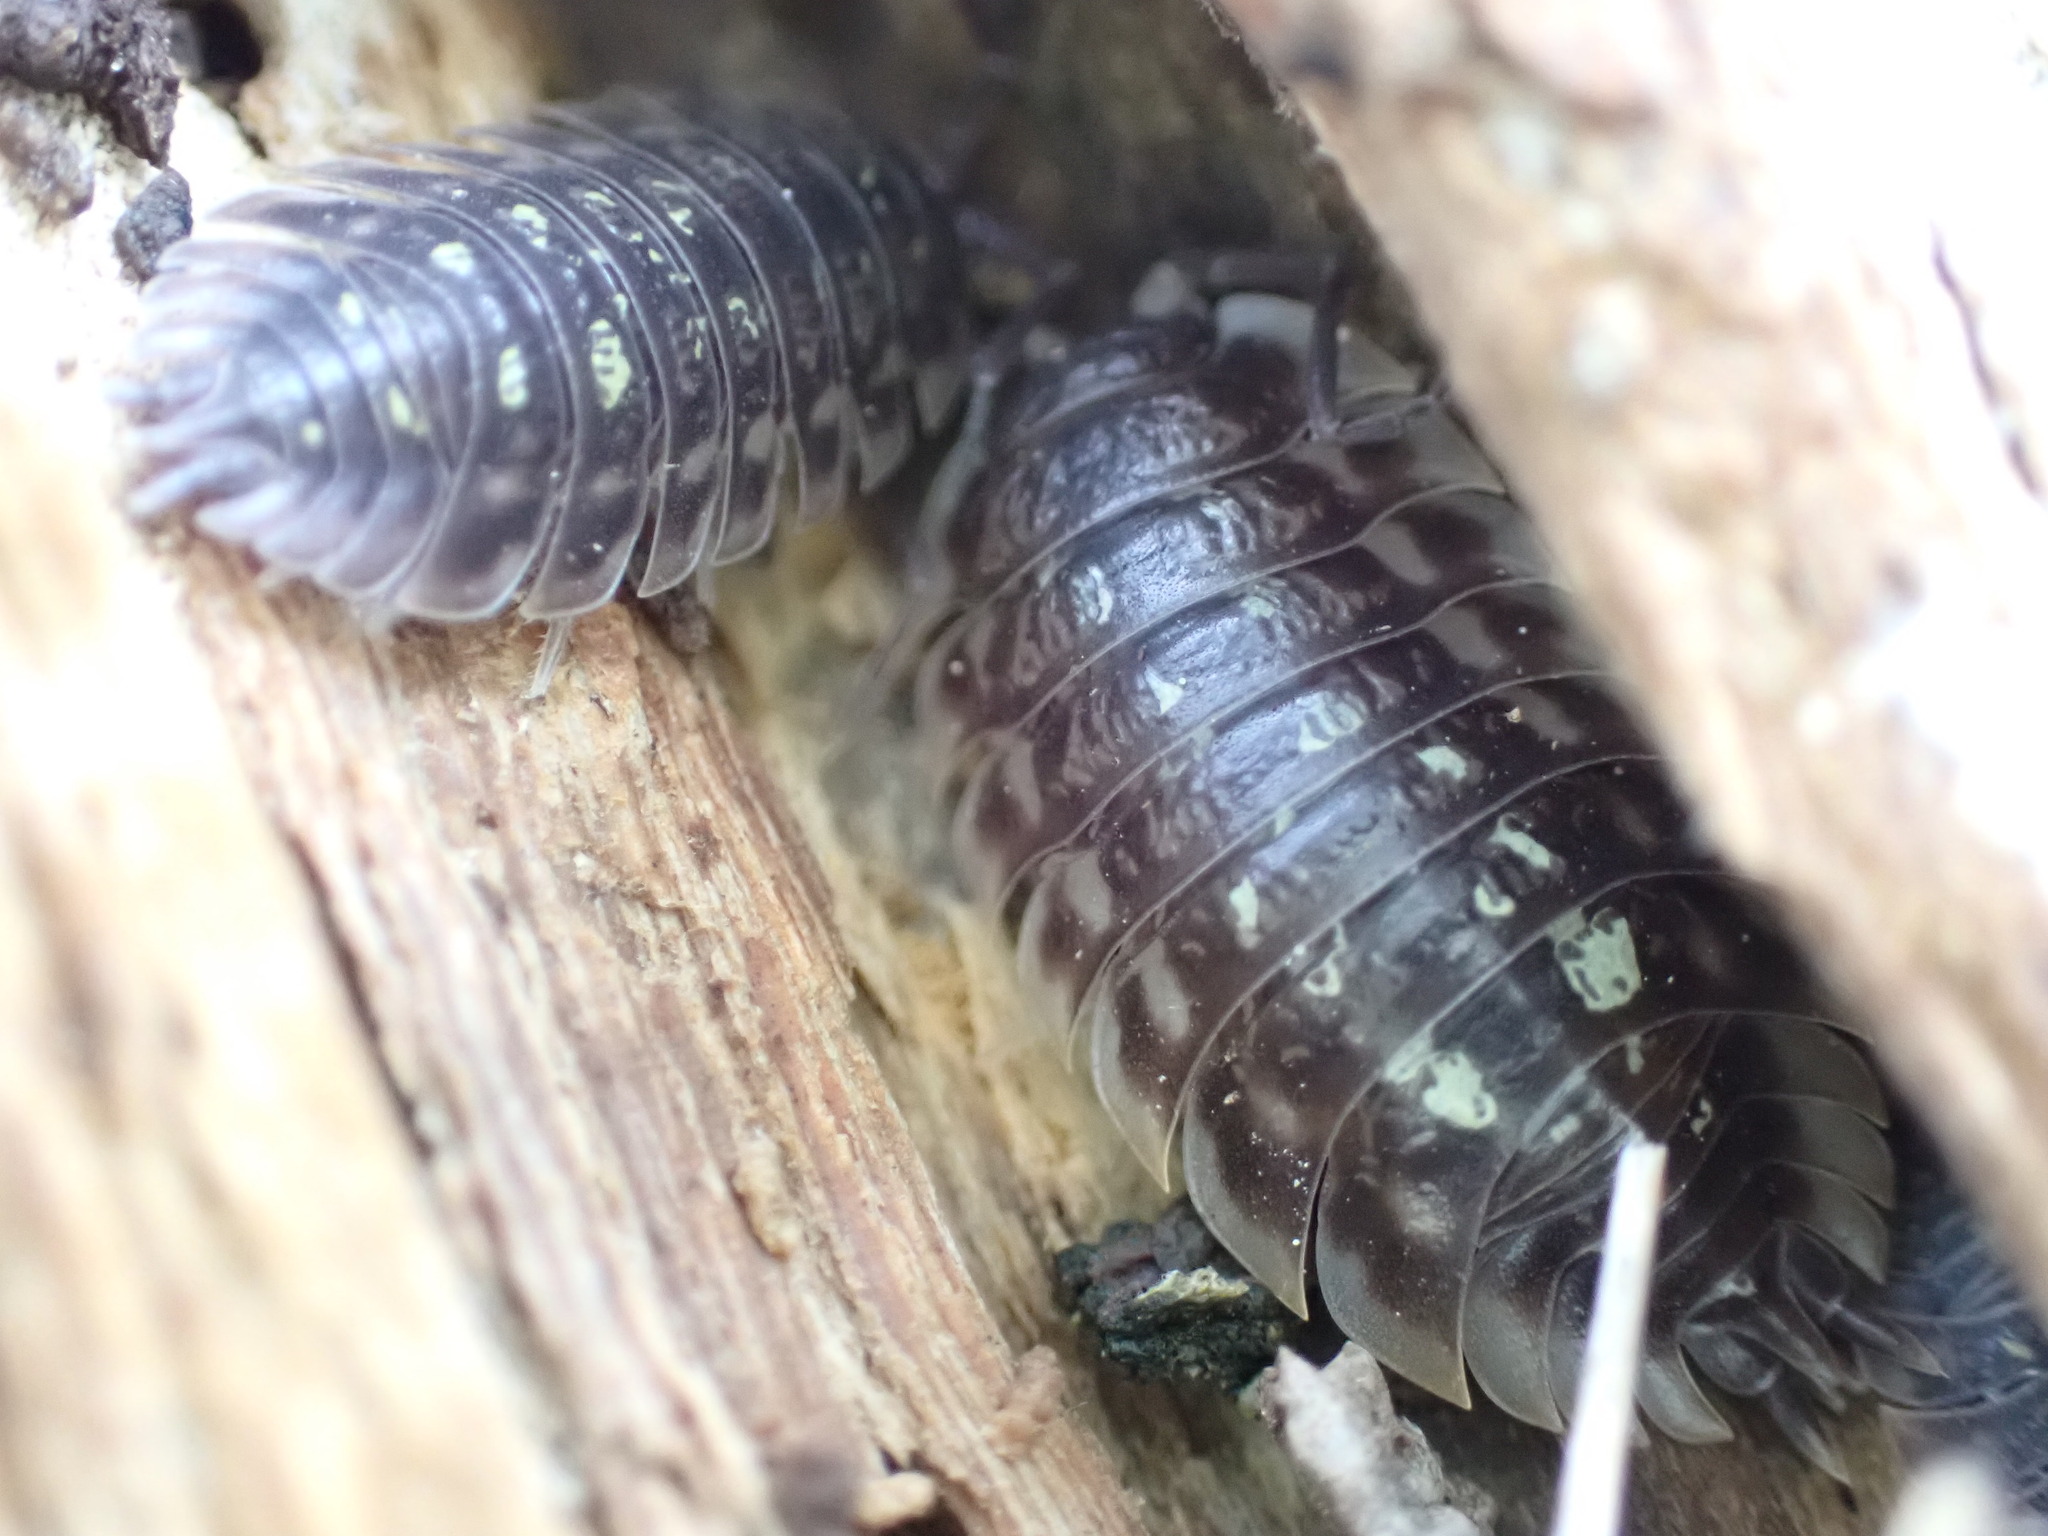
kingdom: Animalia
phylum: Arthropoda
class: Malacostraca
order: Isopoda
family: Oniscidae
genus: Oniscus
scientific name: Oniscus asellus
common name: Common shiny woodlouse
